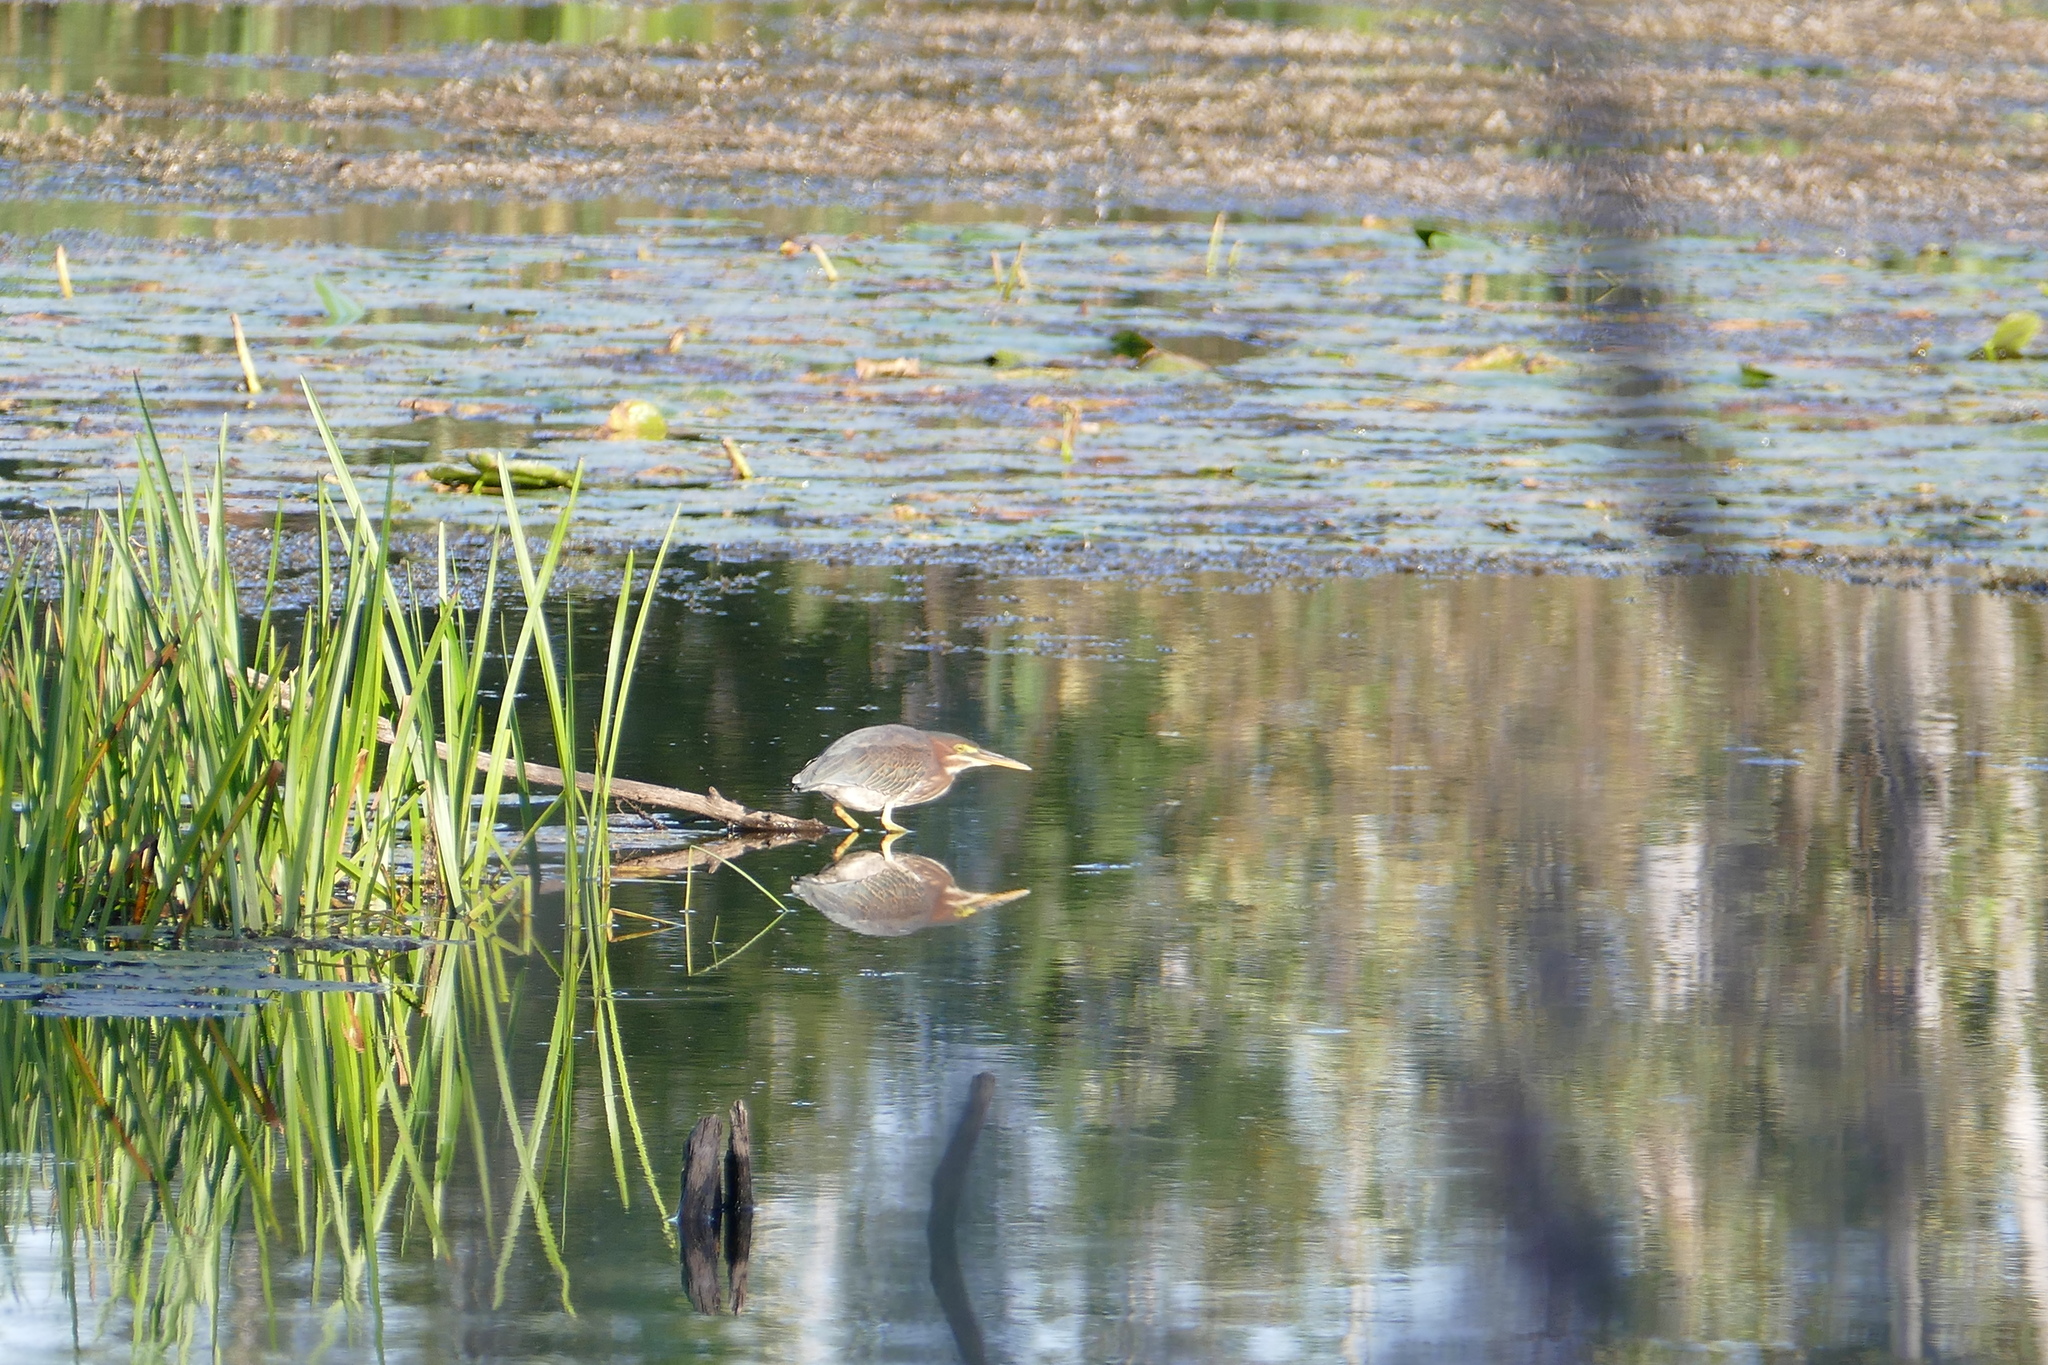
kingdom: Animalia
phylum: Chordata
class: Aves
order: Pelecaniformes
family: Ardeidae
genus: Butorides
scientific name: Butorides virescens
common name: Green heron
